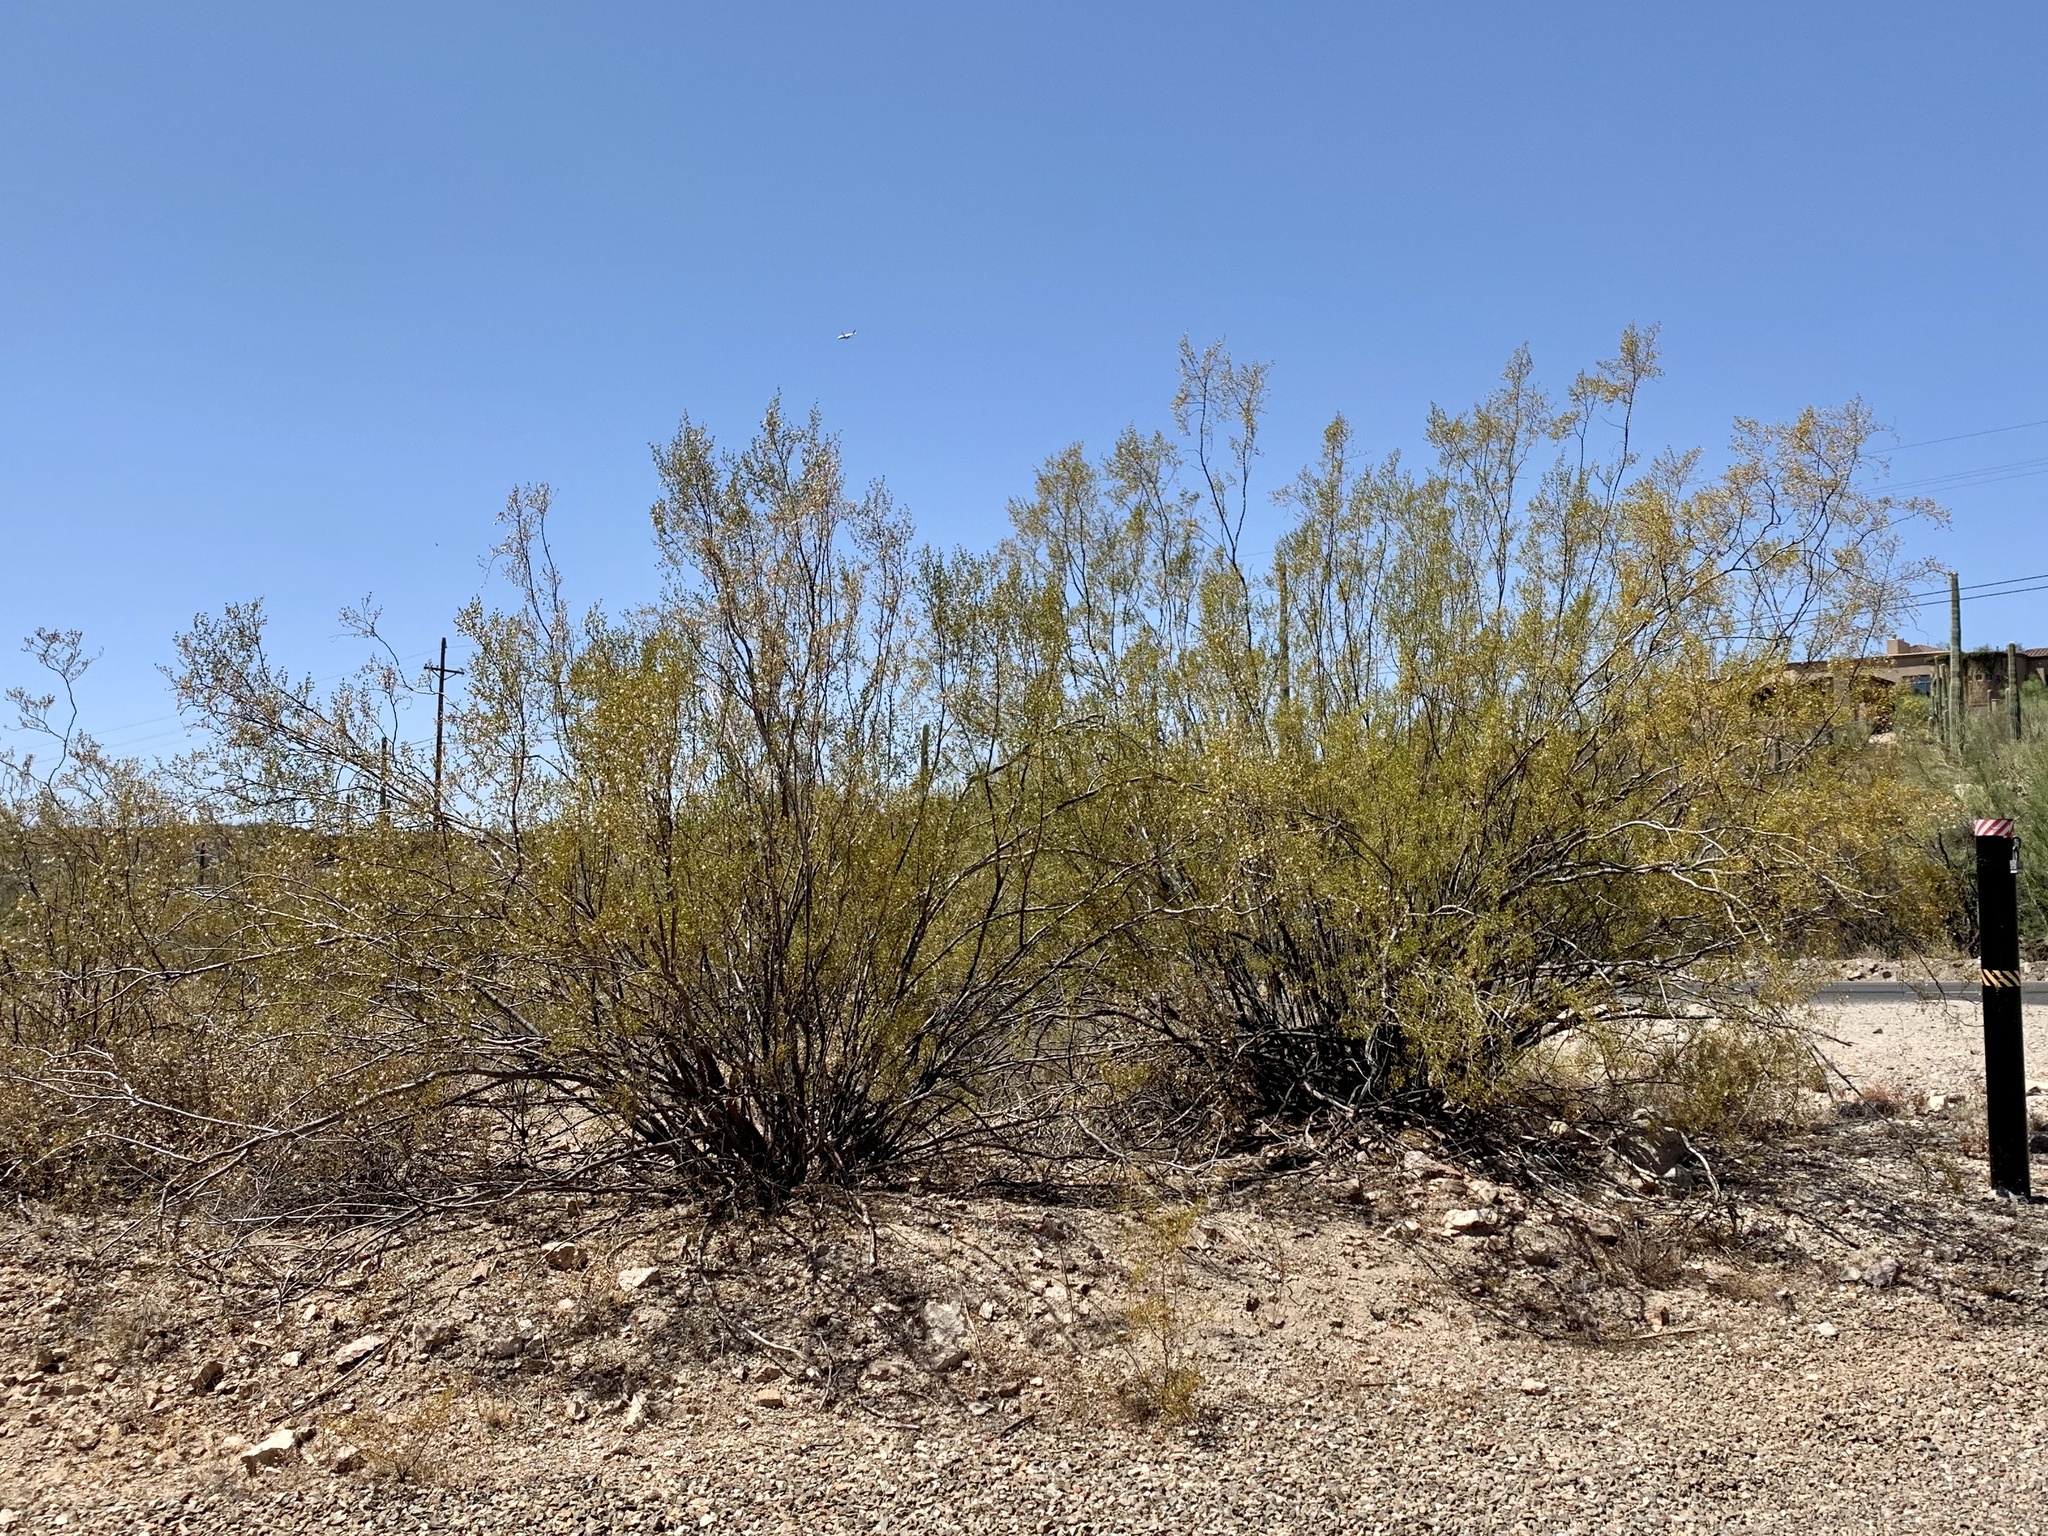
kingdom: Plantae
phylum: Tracheophyta
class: Magnoliopsida
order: Zygophyllales
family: Zygophyllaceae
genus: Larrea
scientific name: Larrea tridentata
